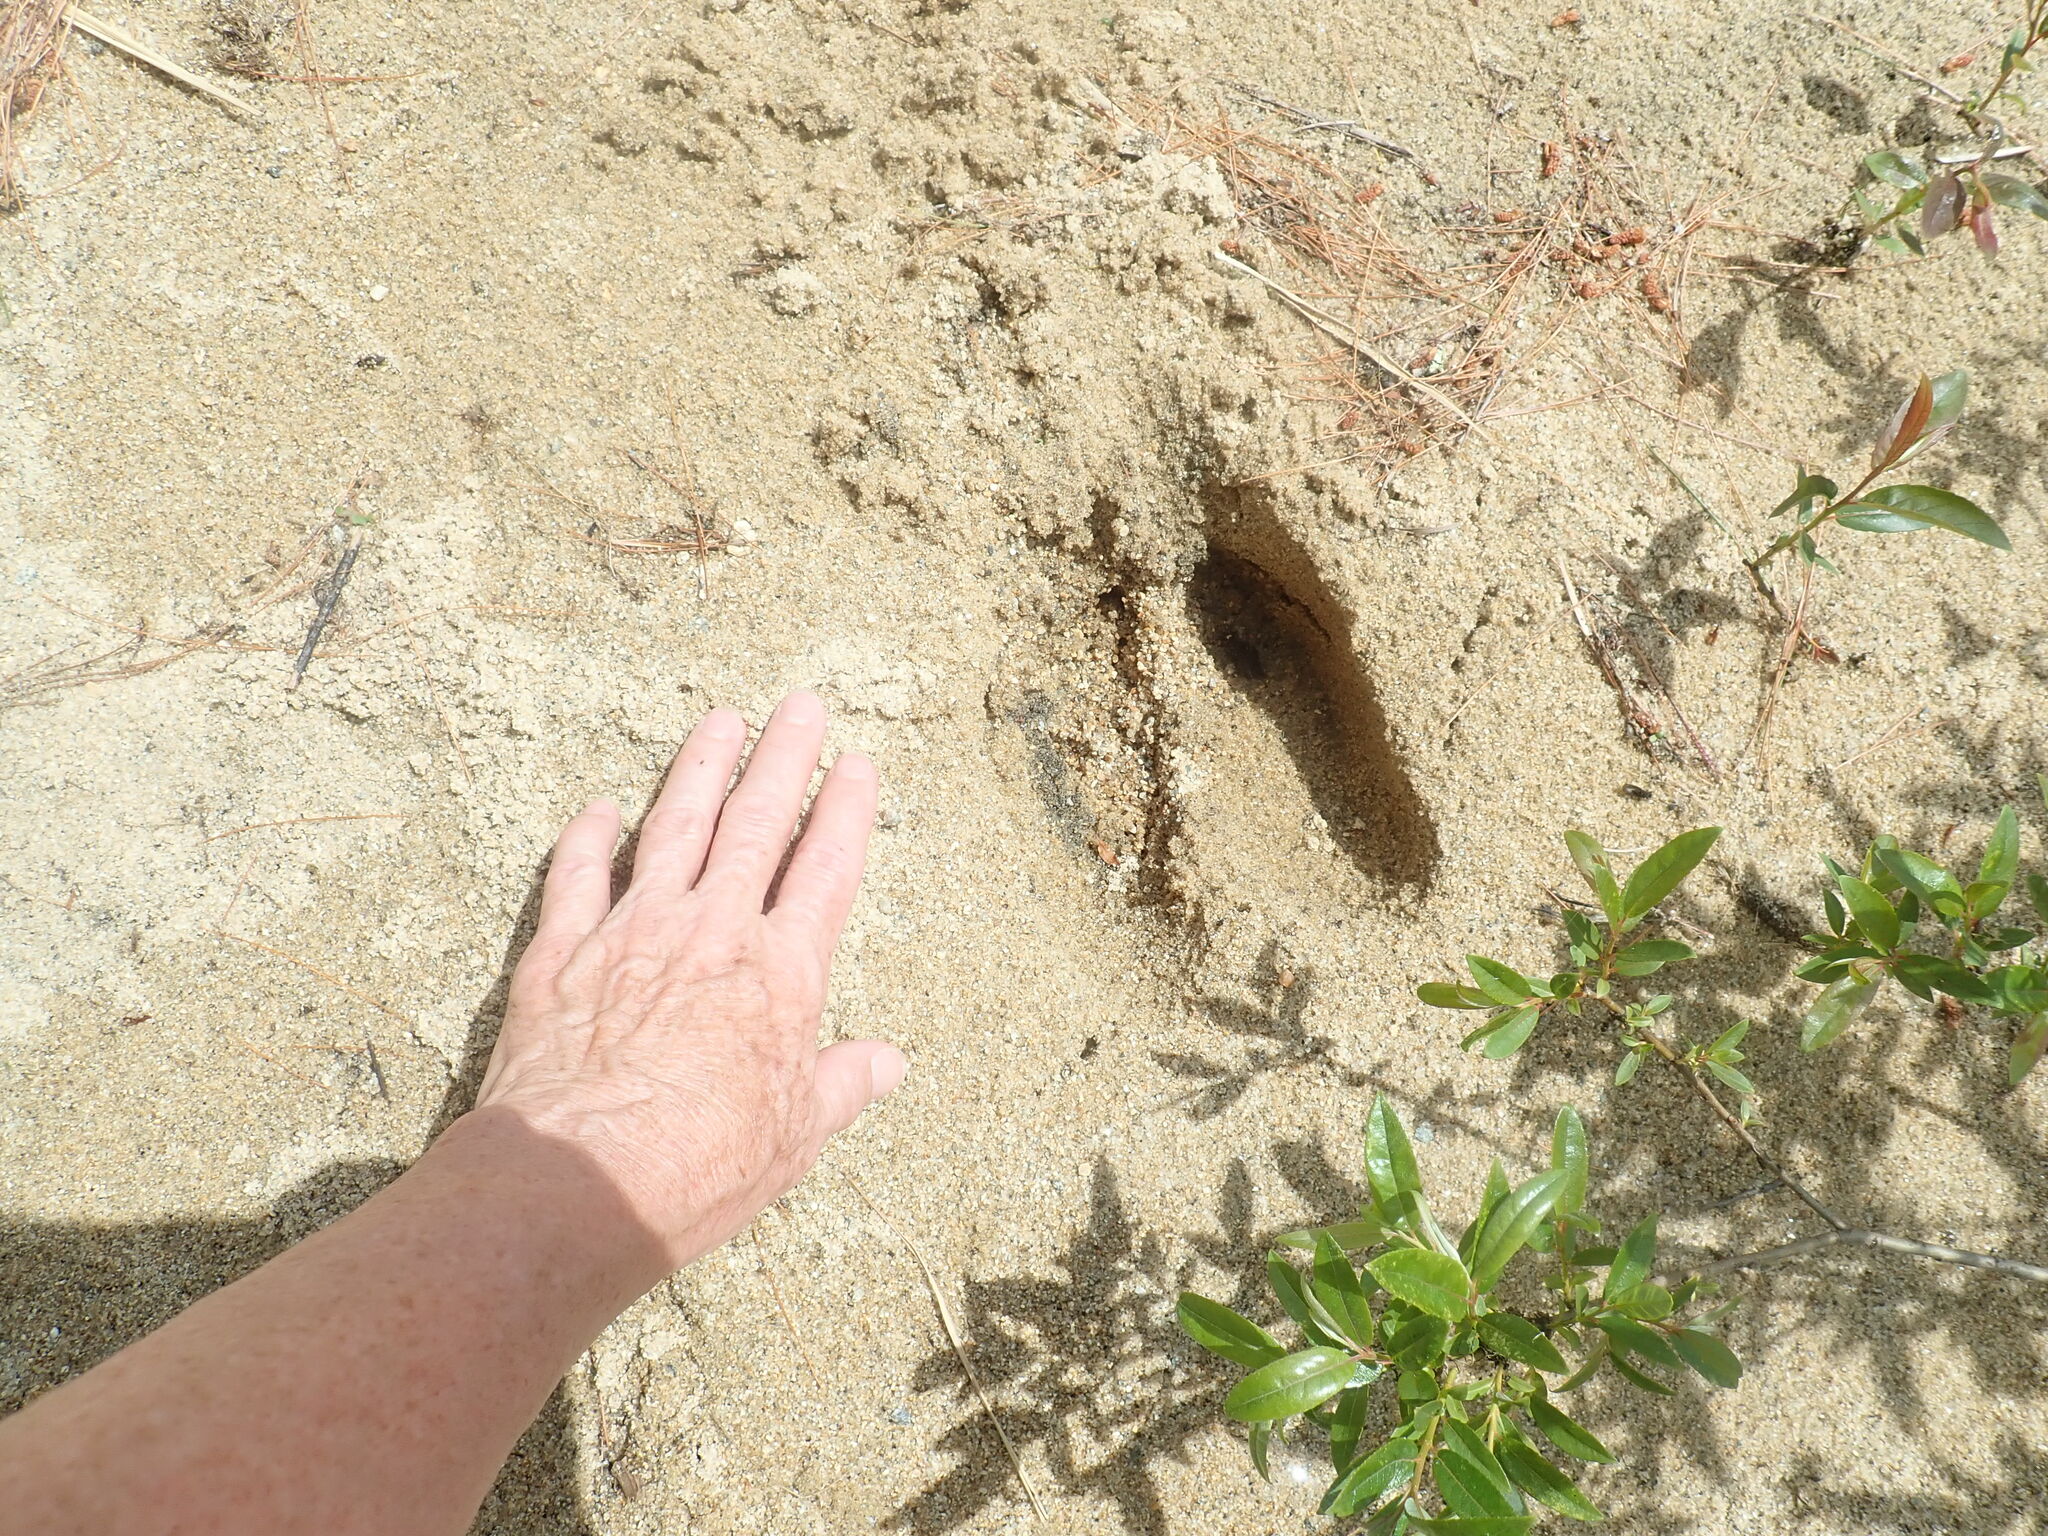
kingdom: Animalia
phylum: Chordata
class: Mammalia
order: Artiodactyla
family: Cervidae
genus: Alces
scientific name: Alces alces
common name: Moose
